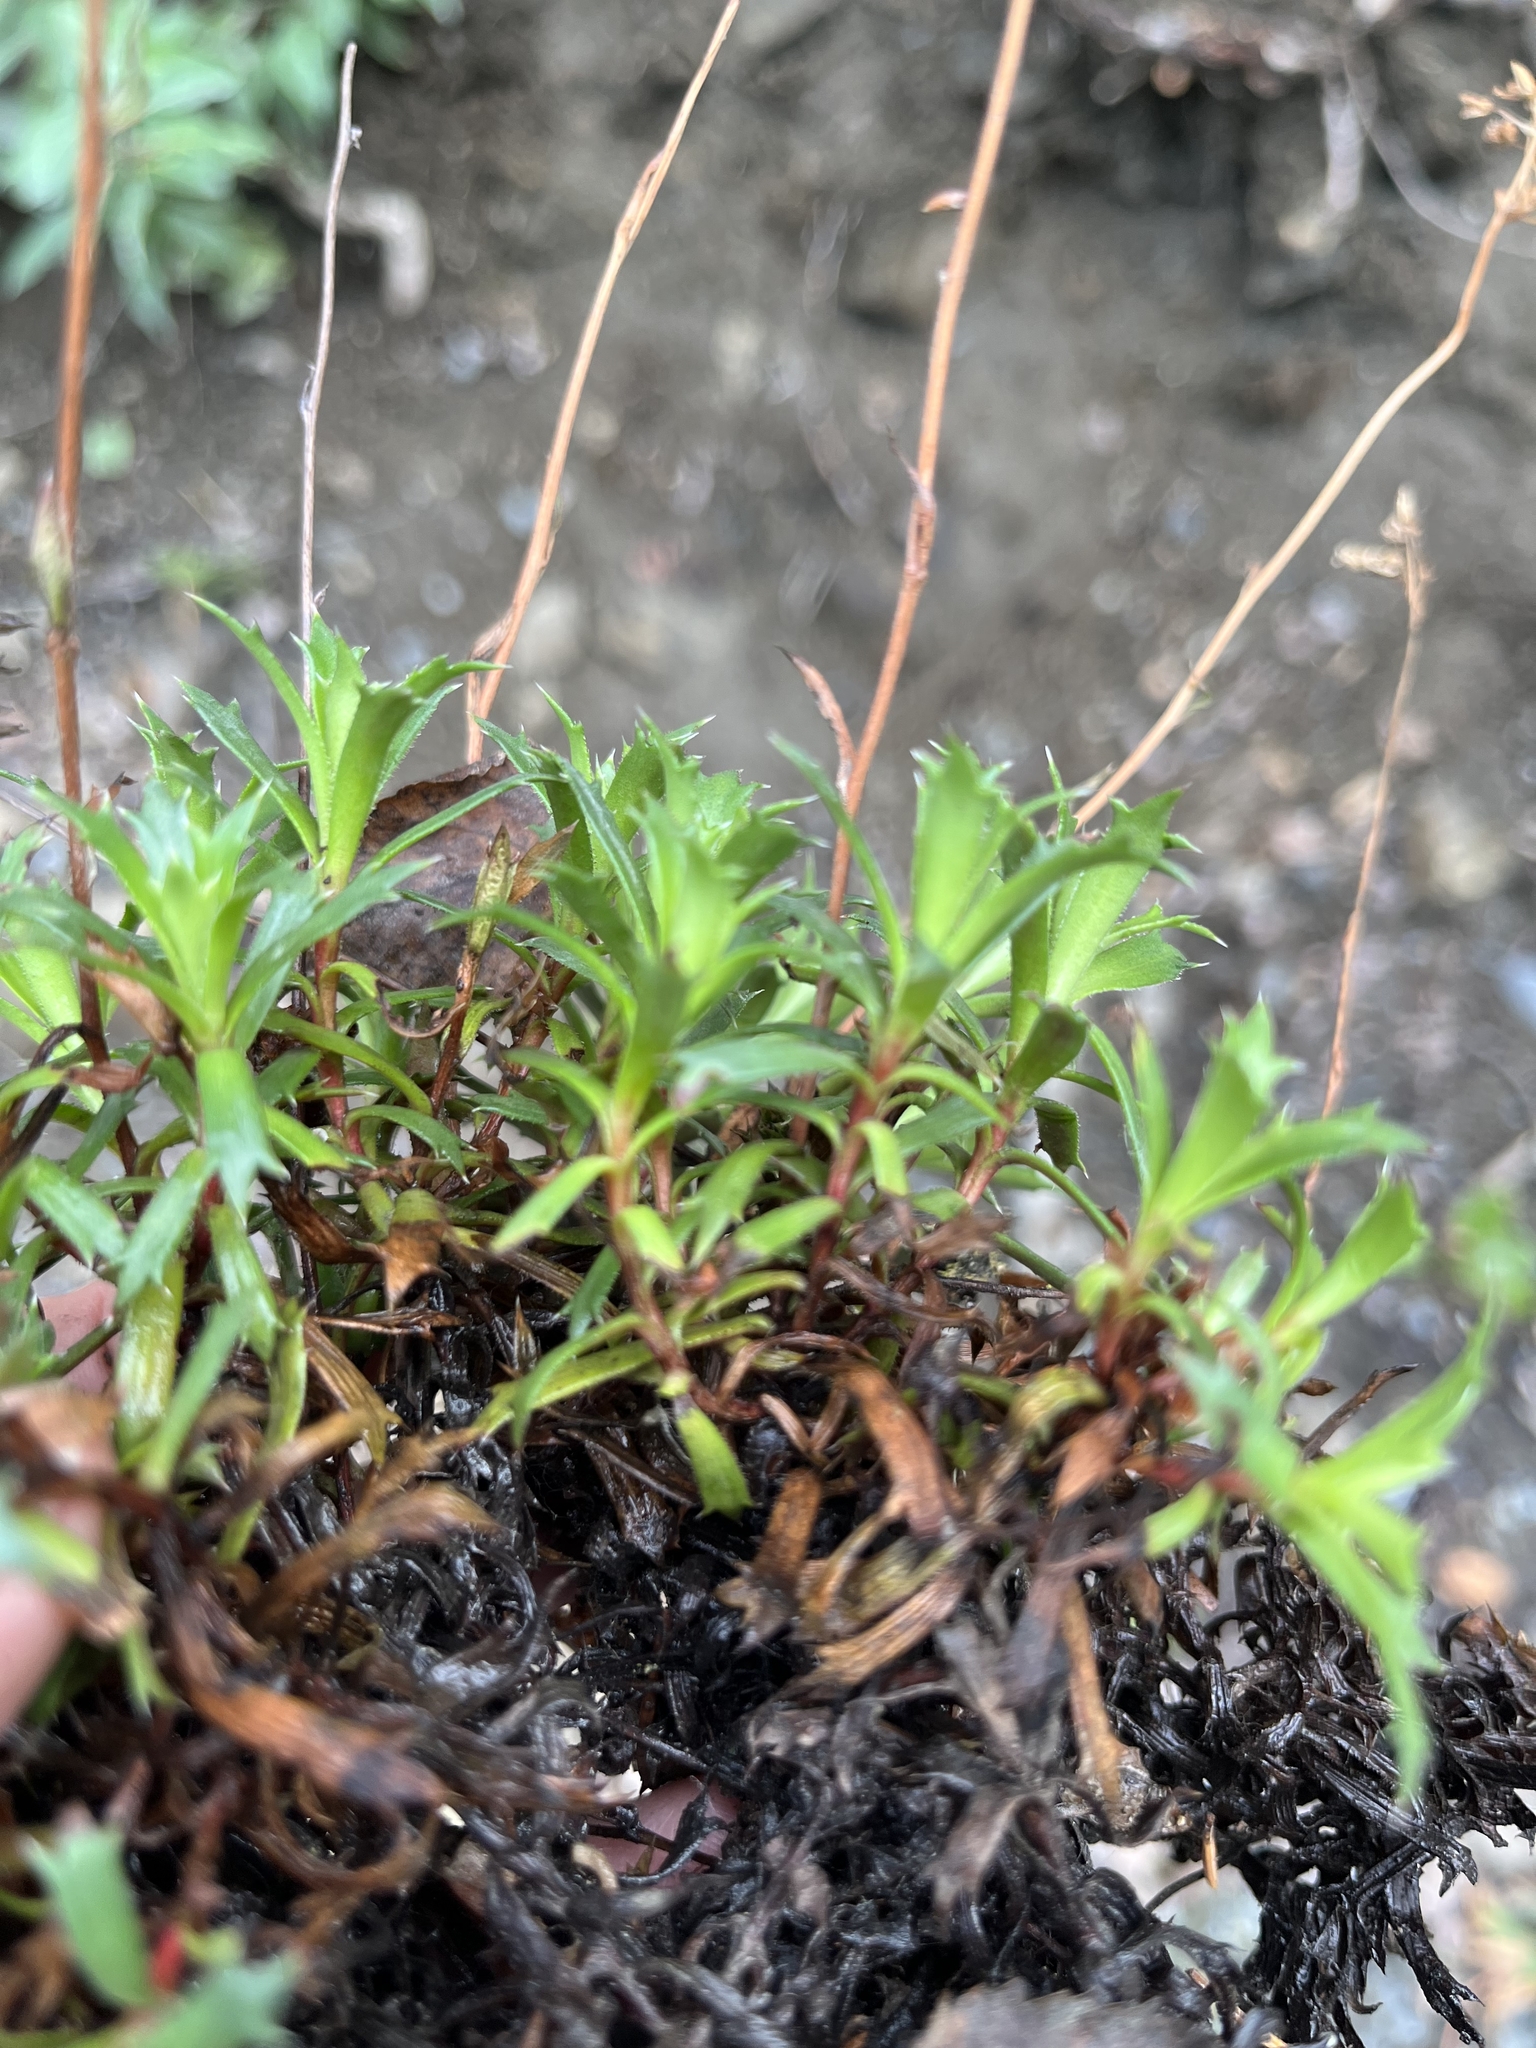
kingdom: Plantae
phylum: Tracheophyta
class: Magnoliopsida
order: Saxifragales
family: Saxifragaceae
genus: Saxifraga
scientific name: Saxifraga tricuspidata
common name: Prickly saxifrage
